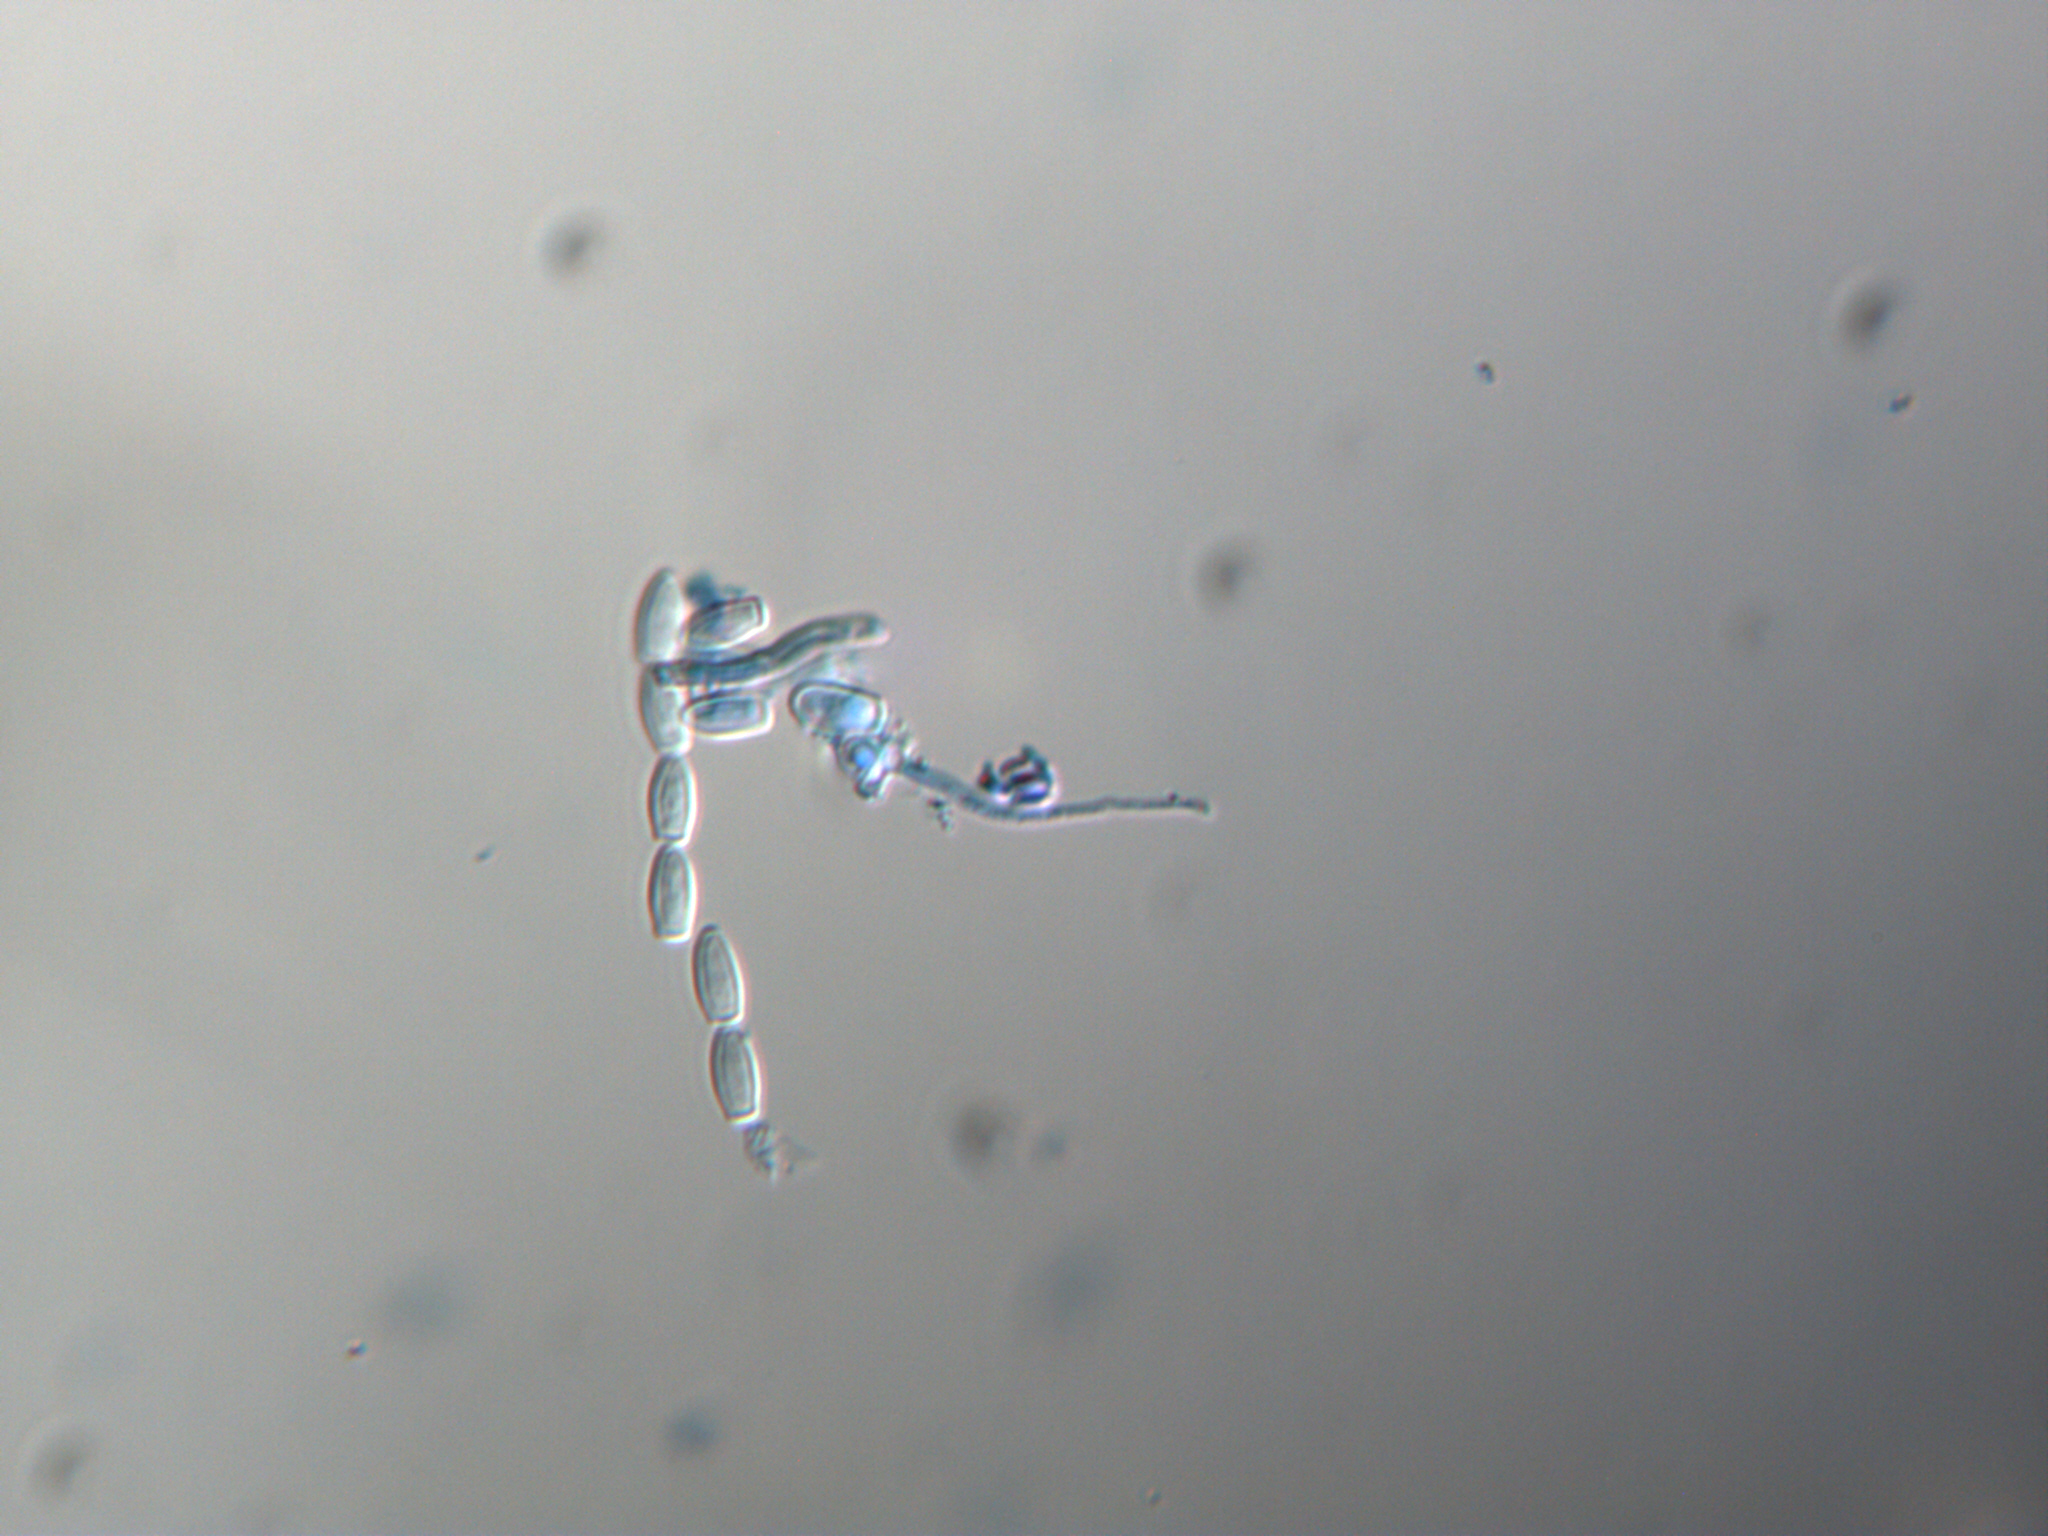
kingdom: Fungi
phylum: Ascomycota
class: Sordariomycetes
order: Microascales
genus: Inodoromyces
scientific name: Inodoromyces interjectus
